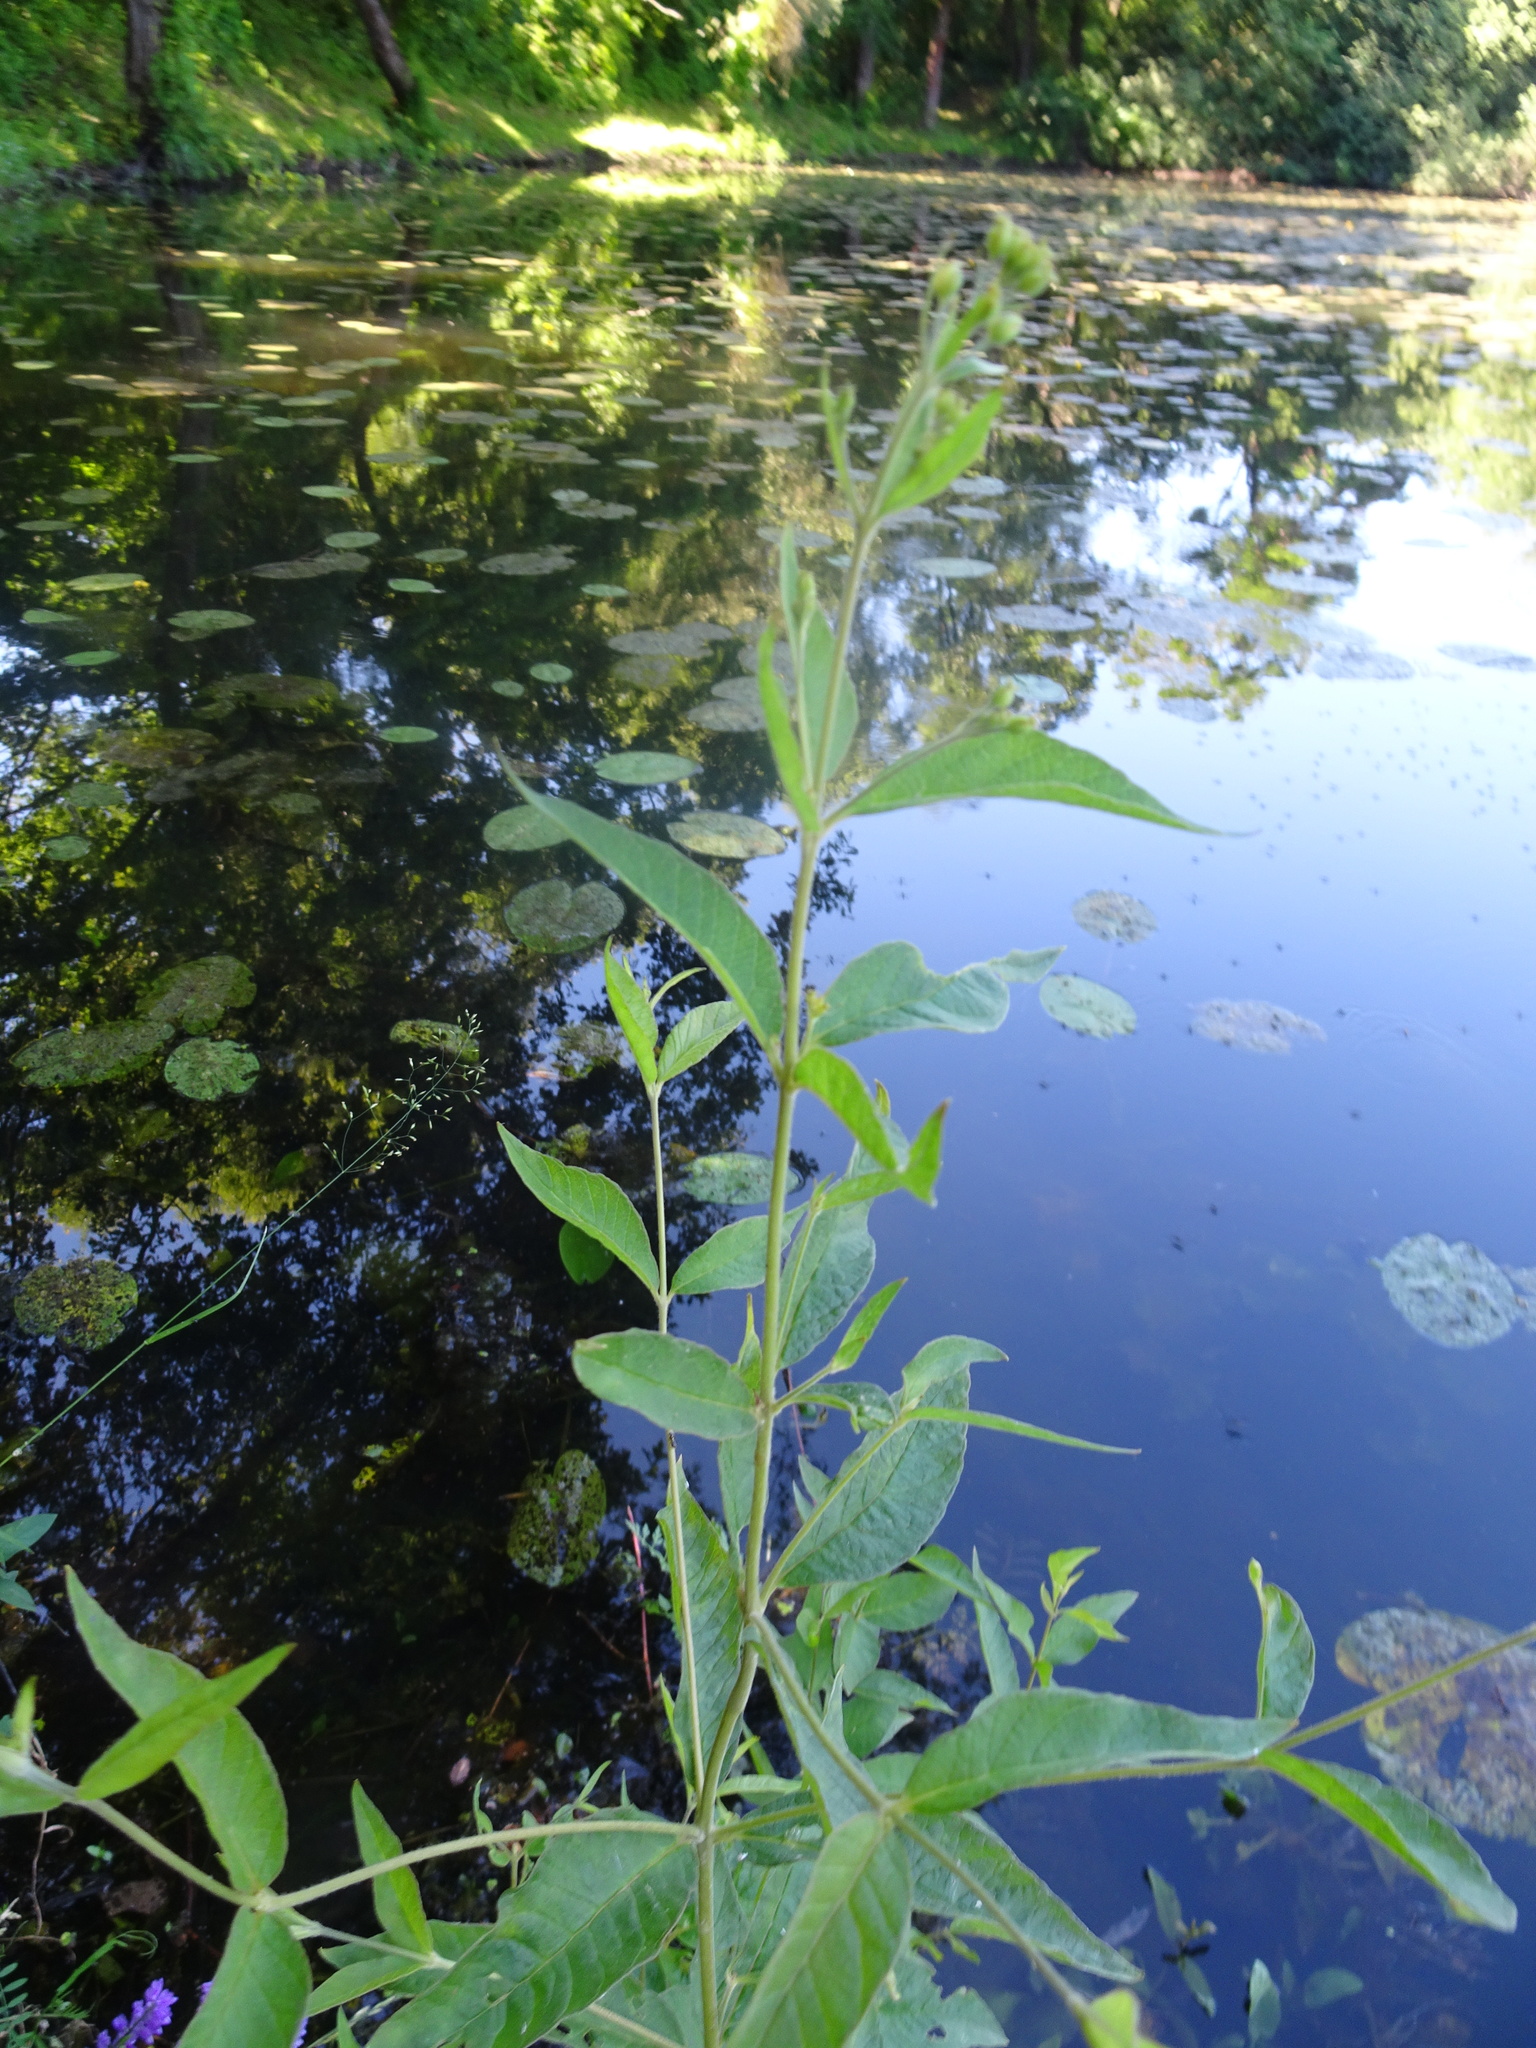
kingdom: Plantae
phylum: Tracheophyta
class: Magnoliopsida
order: Ericales
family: Primulaceae
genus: Lysimachia
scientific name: Lysimachia vulgaris
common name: Yellow loosestrife
